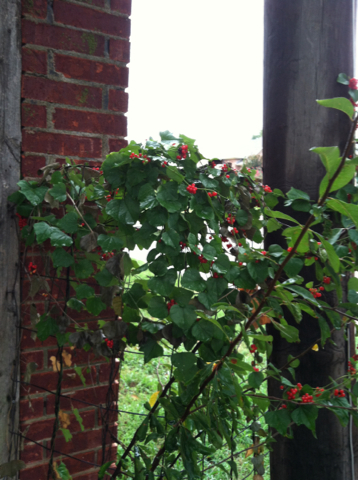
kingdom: Plantae
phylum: Tracheophyta
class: Magnoliopsida
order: Ranunculales
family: Menispermaceae
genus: Cocculus
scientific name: Cocculus carolinus
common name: Carolina moonseed
